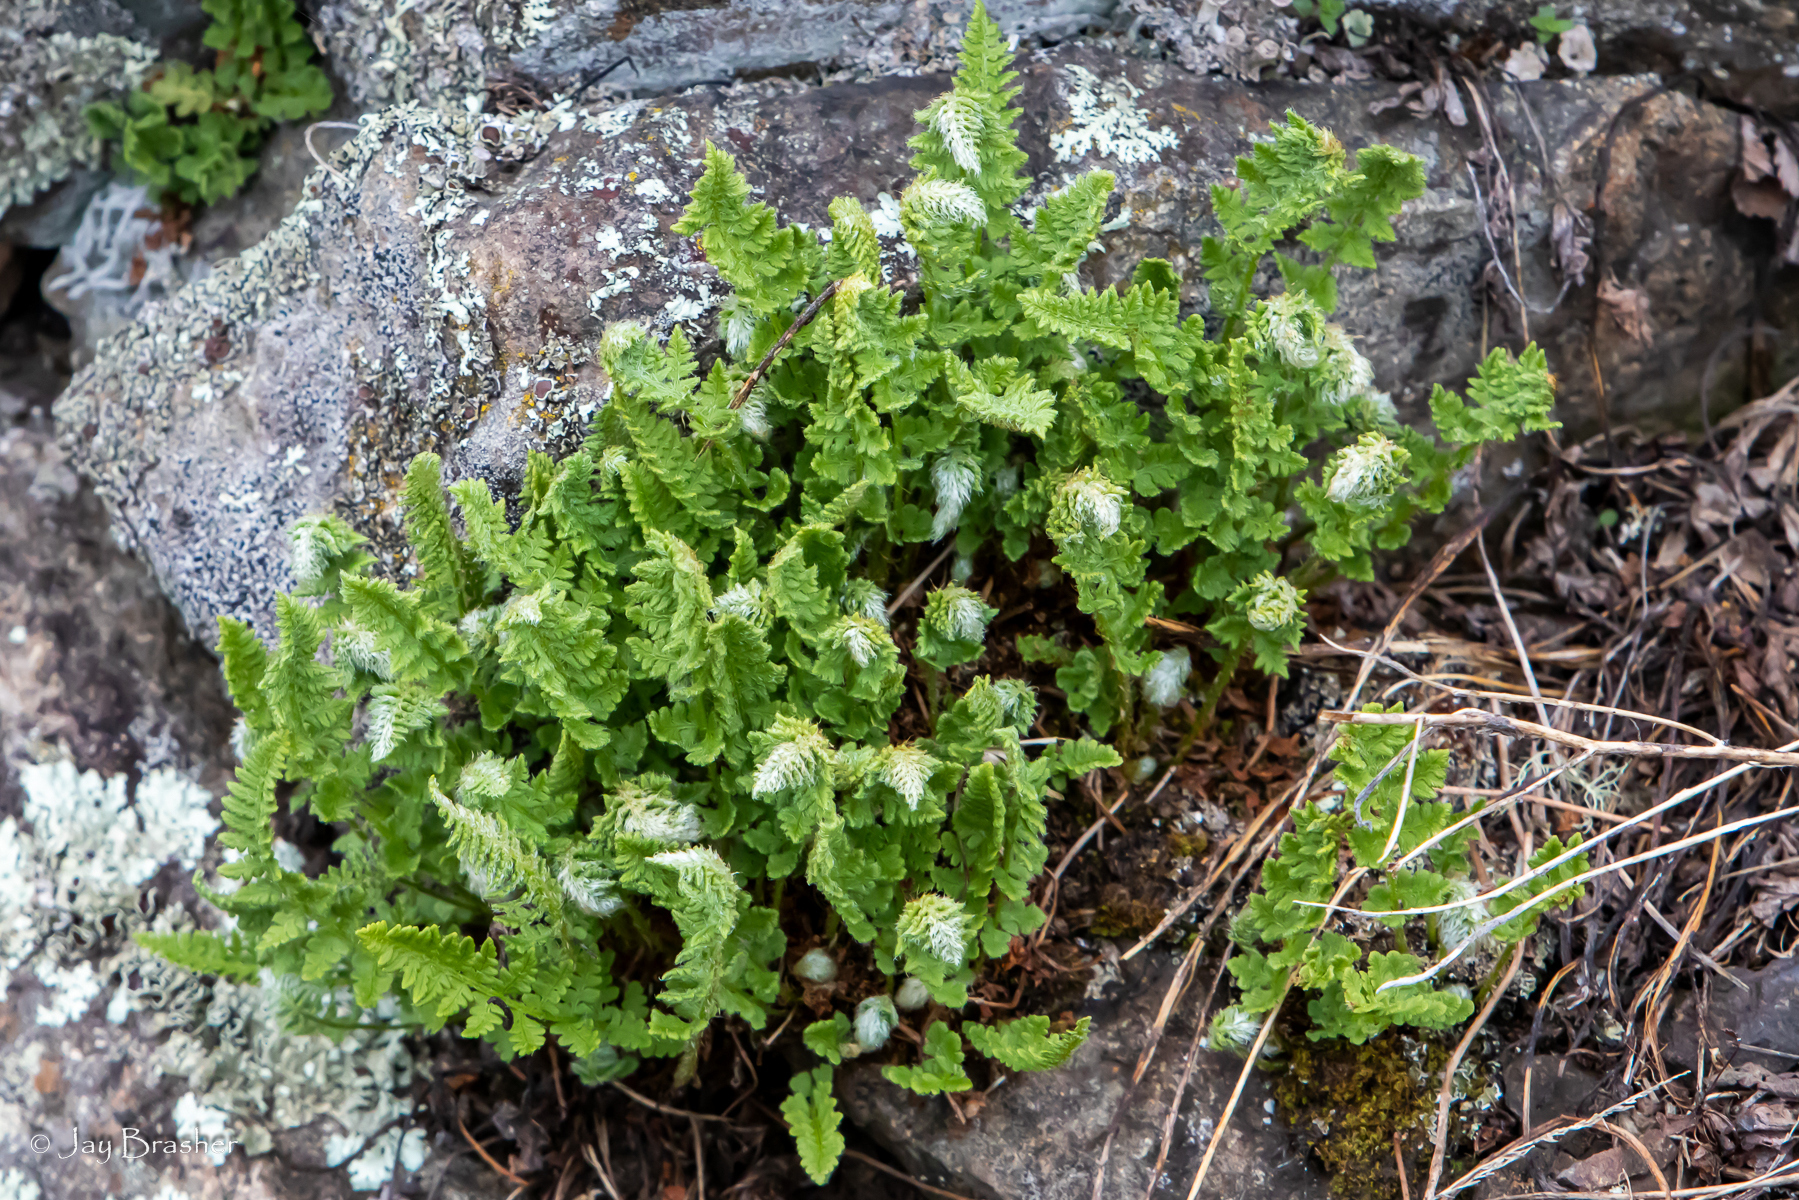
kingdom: Plantae
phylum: Tracheophyta
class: Polypodiopsida
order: Polypodiales
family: Woodsiaceae
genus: Woodsia
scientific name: Woodsia ilvensis
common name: Fragrant woodsia
